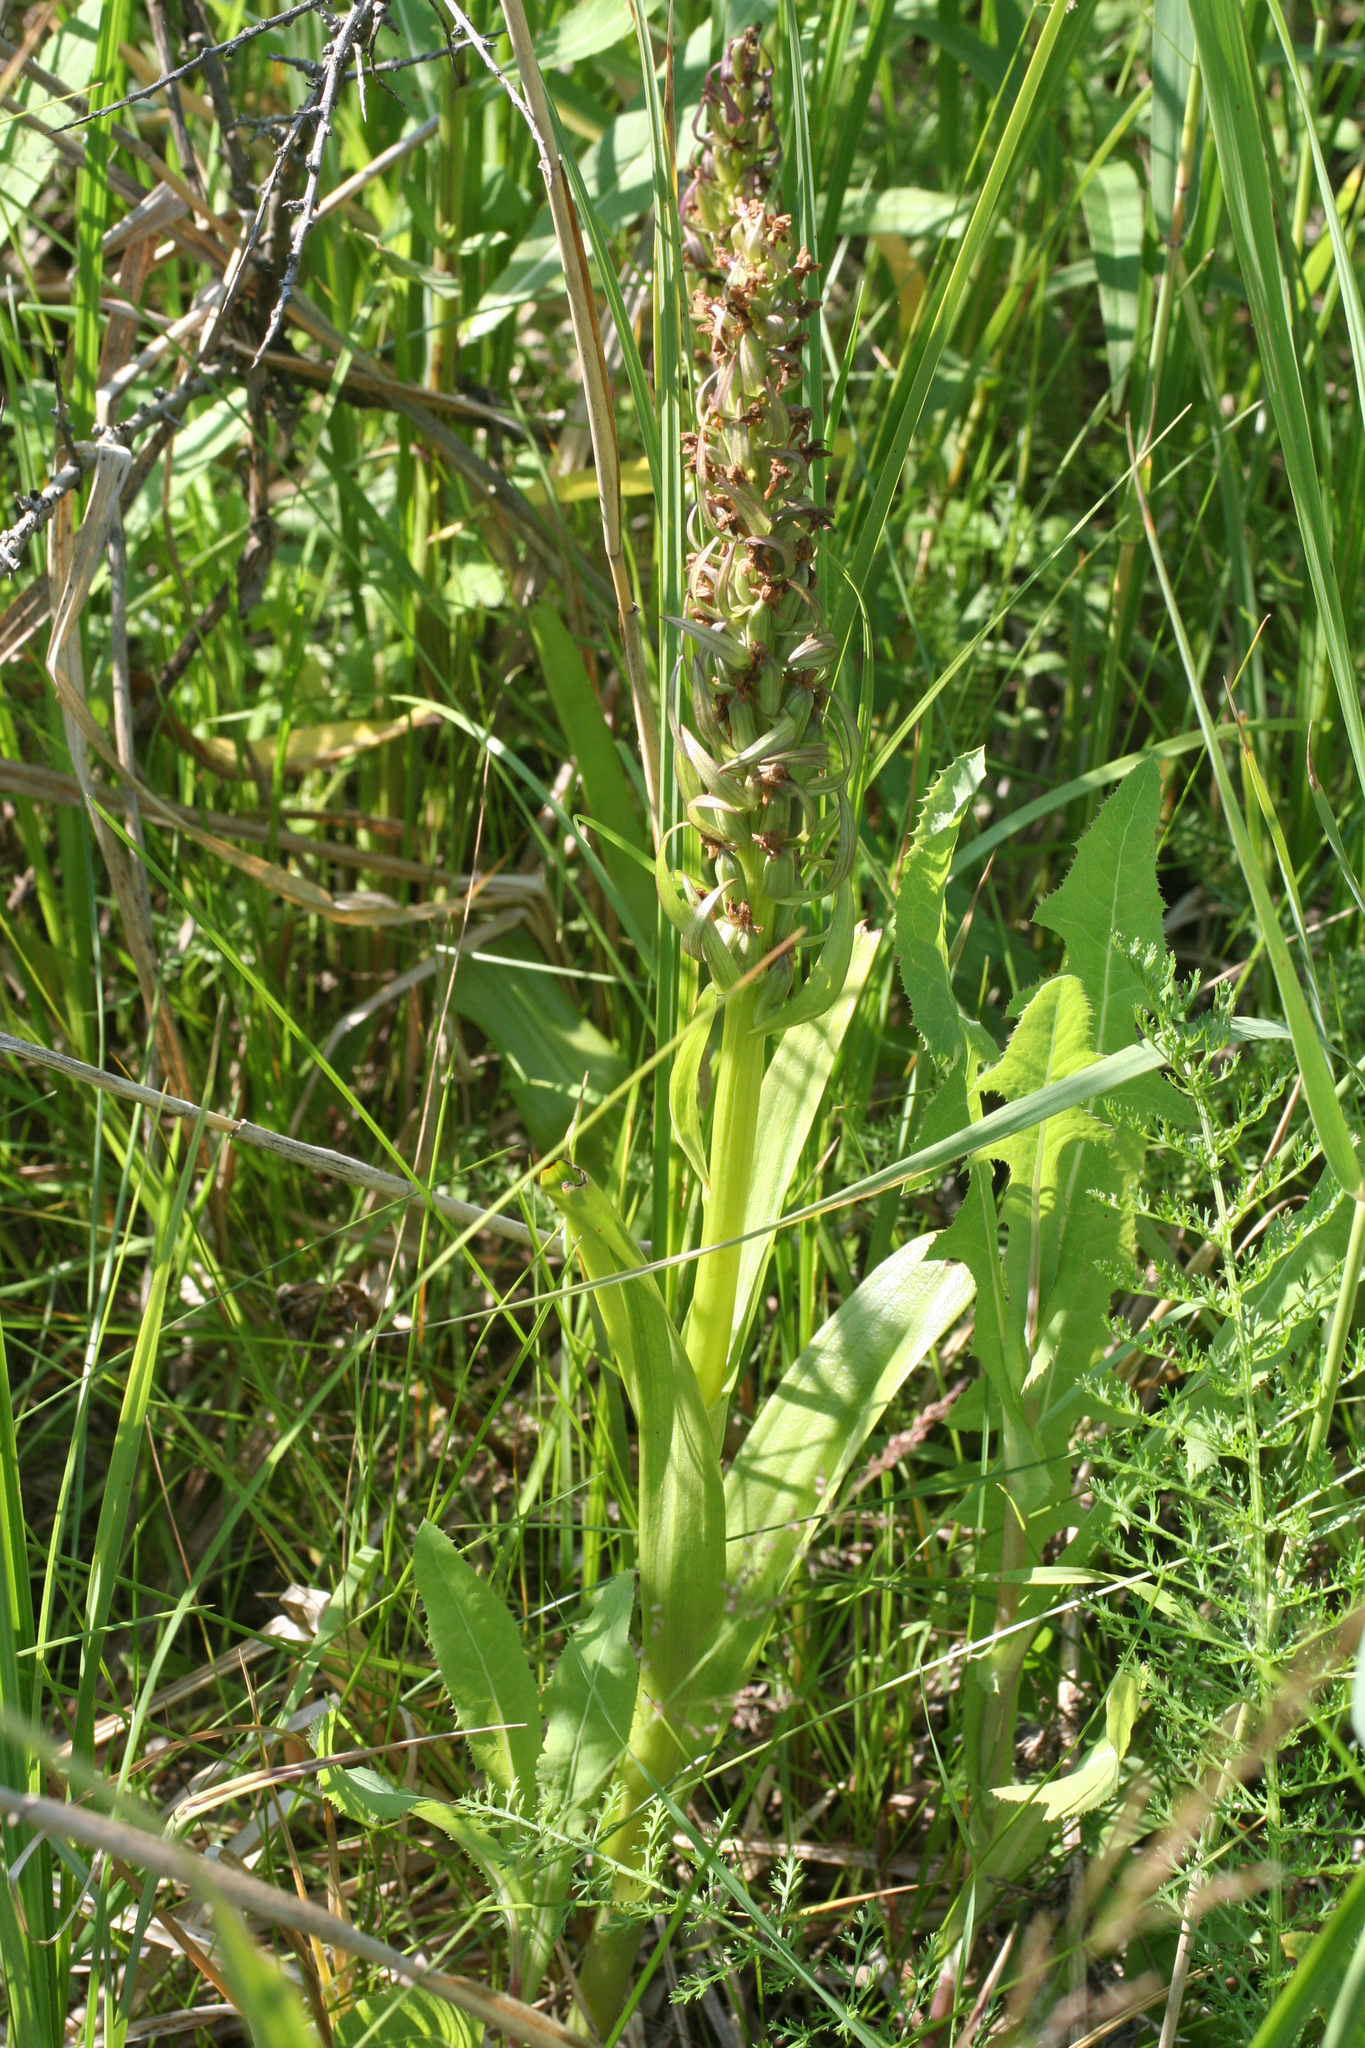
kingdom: Plantae
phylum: Tracheophyta
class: Liliopsida
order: Asparagales
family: Orchidaceae
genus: Dactylorhiza
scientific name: Dactylorhiza incarnata
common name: Early marsh-orchid
